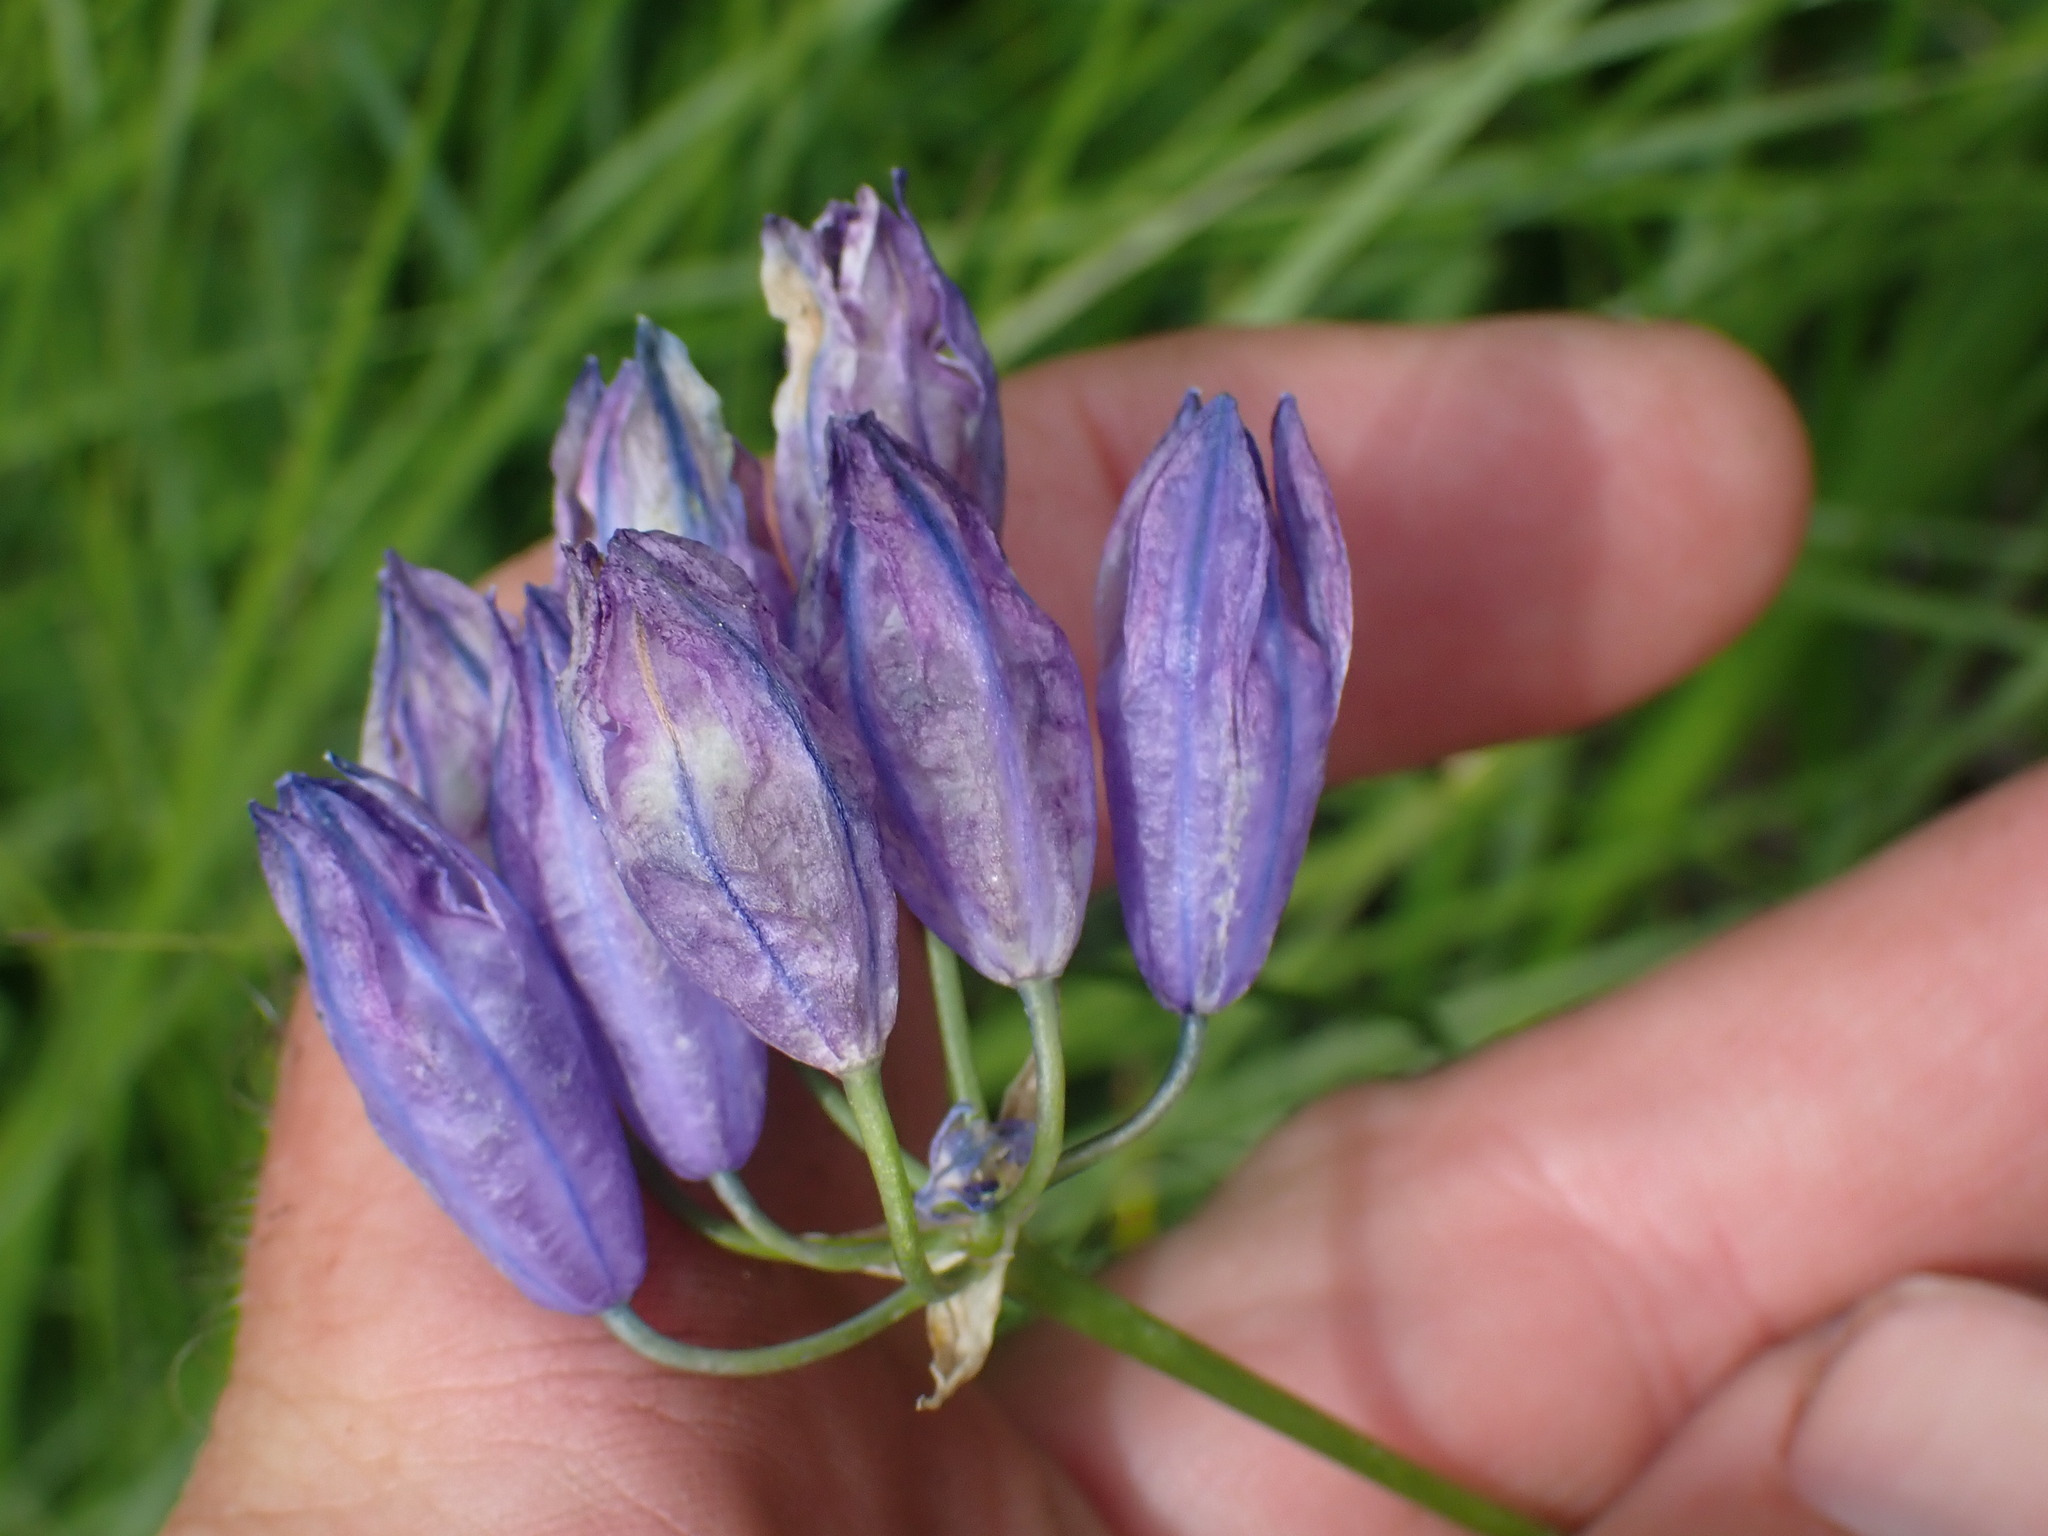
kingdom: Plantae
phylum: Tracheophyta
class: Liliopsida
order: Asparagales
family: Asparagaceae
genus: Triteleia
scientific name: Triteleia grandiflora
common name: Wild hyacinth
